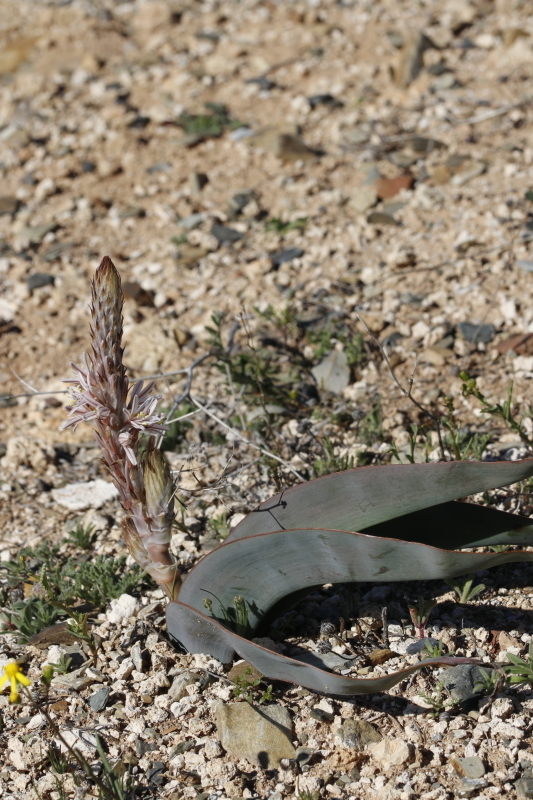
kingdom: Plantae
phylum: Tracheophyta
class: Liliopsida
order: Asparagales
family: Asphodelaceae
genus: Trachyandra
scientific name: Trachyandra falcata
